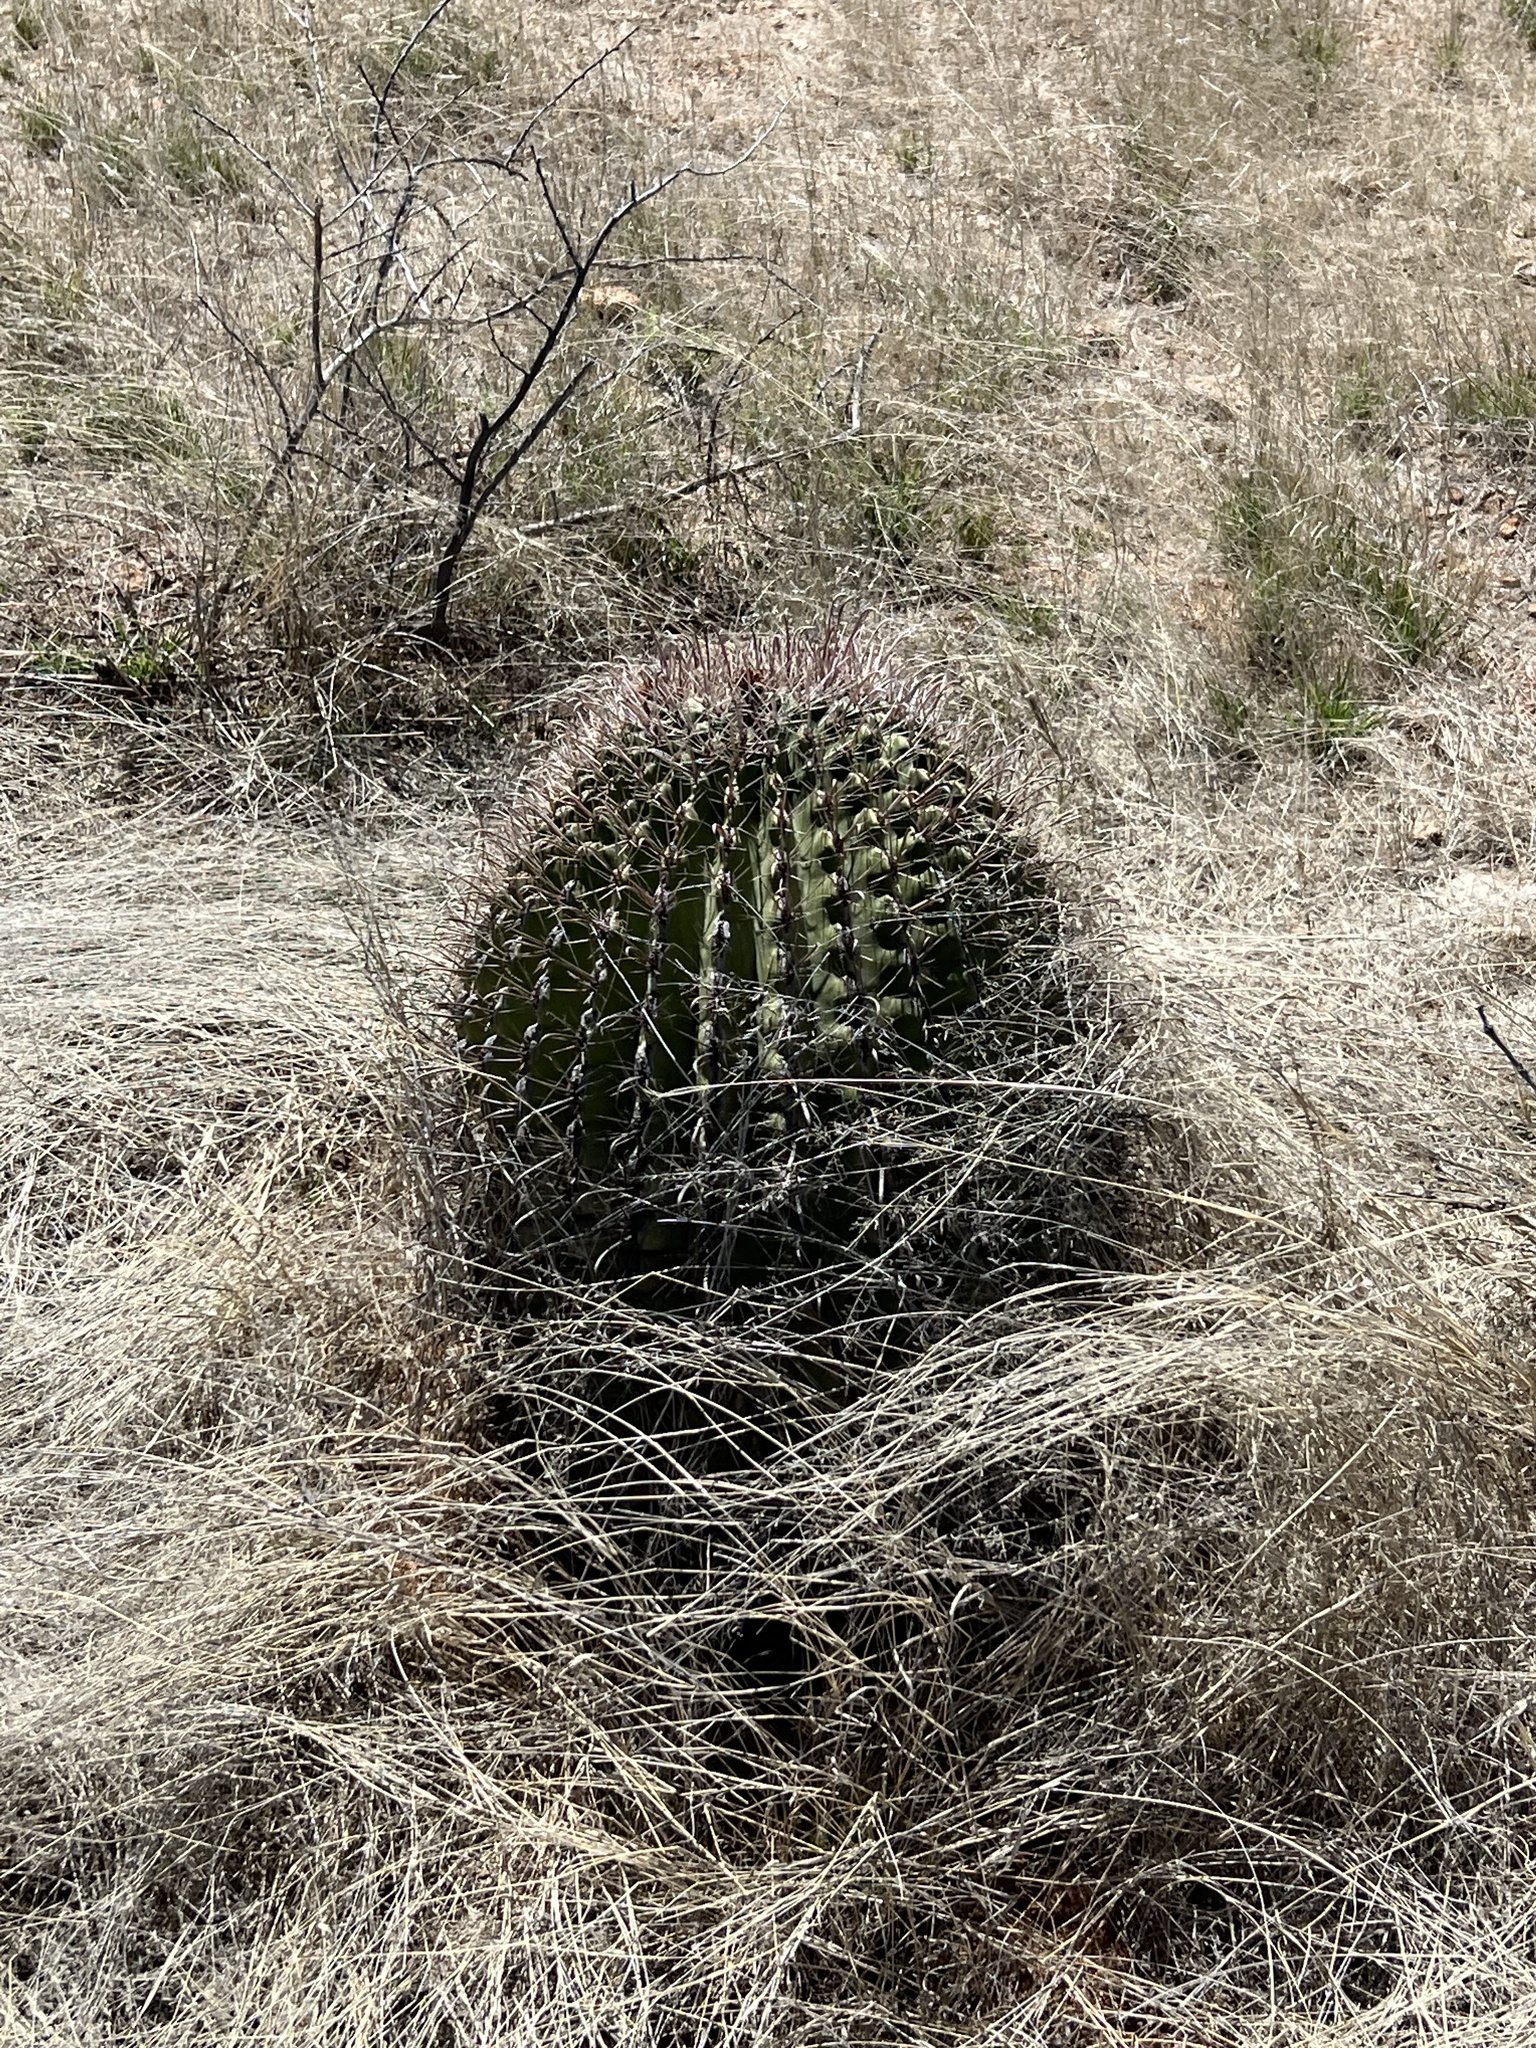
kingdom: Plantae
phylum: Tracheophyta
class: Magnoliopsida
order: Caryophyllales
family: Cactaceae
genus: Ferocactus
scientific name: Ferocactus wislizeni
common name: Candy barrel cactus
